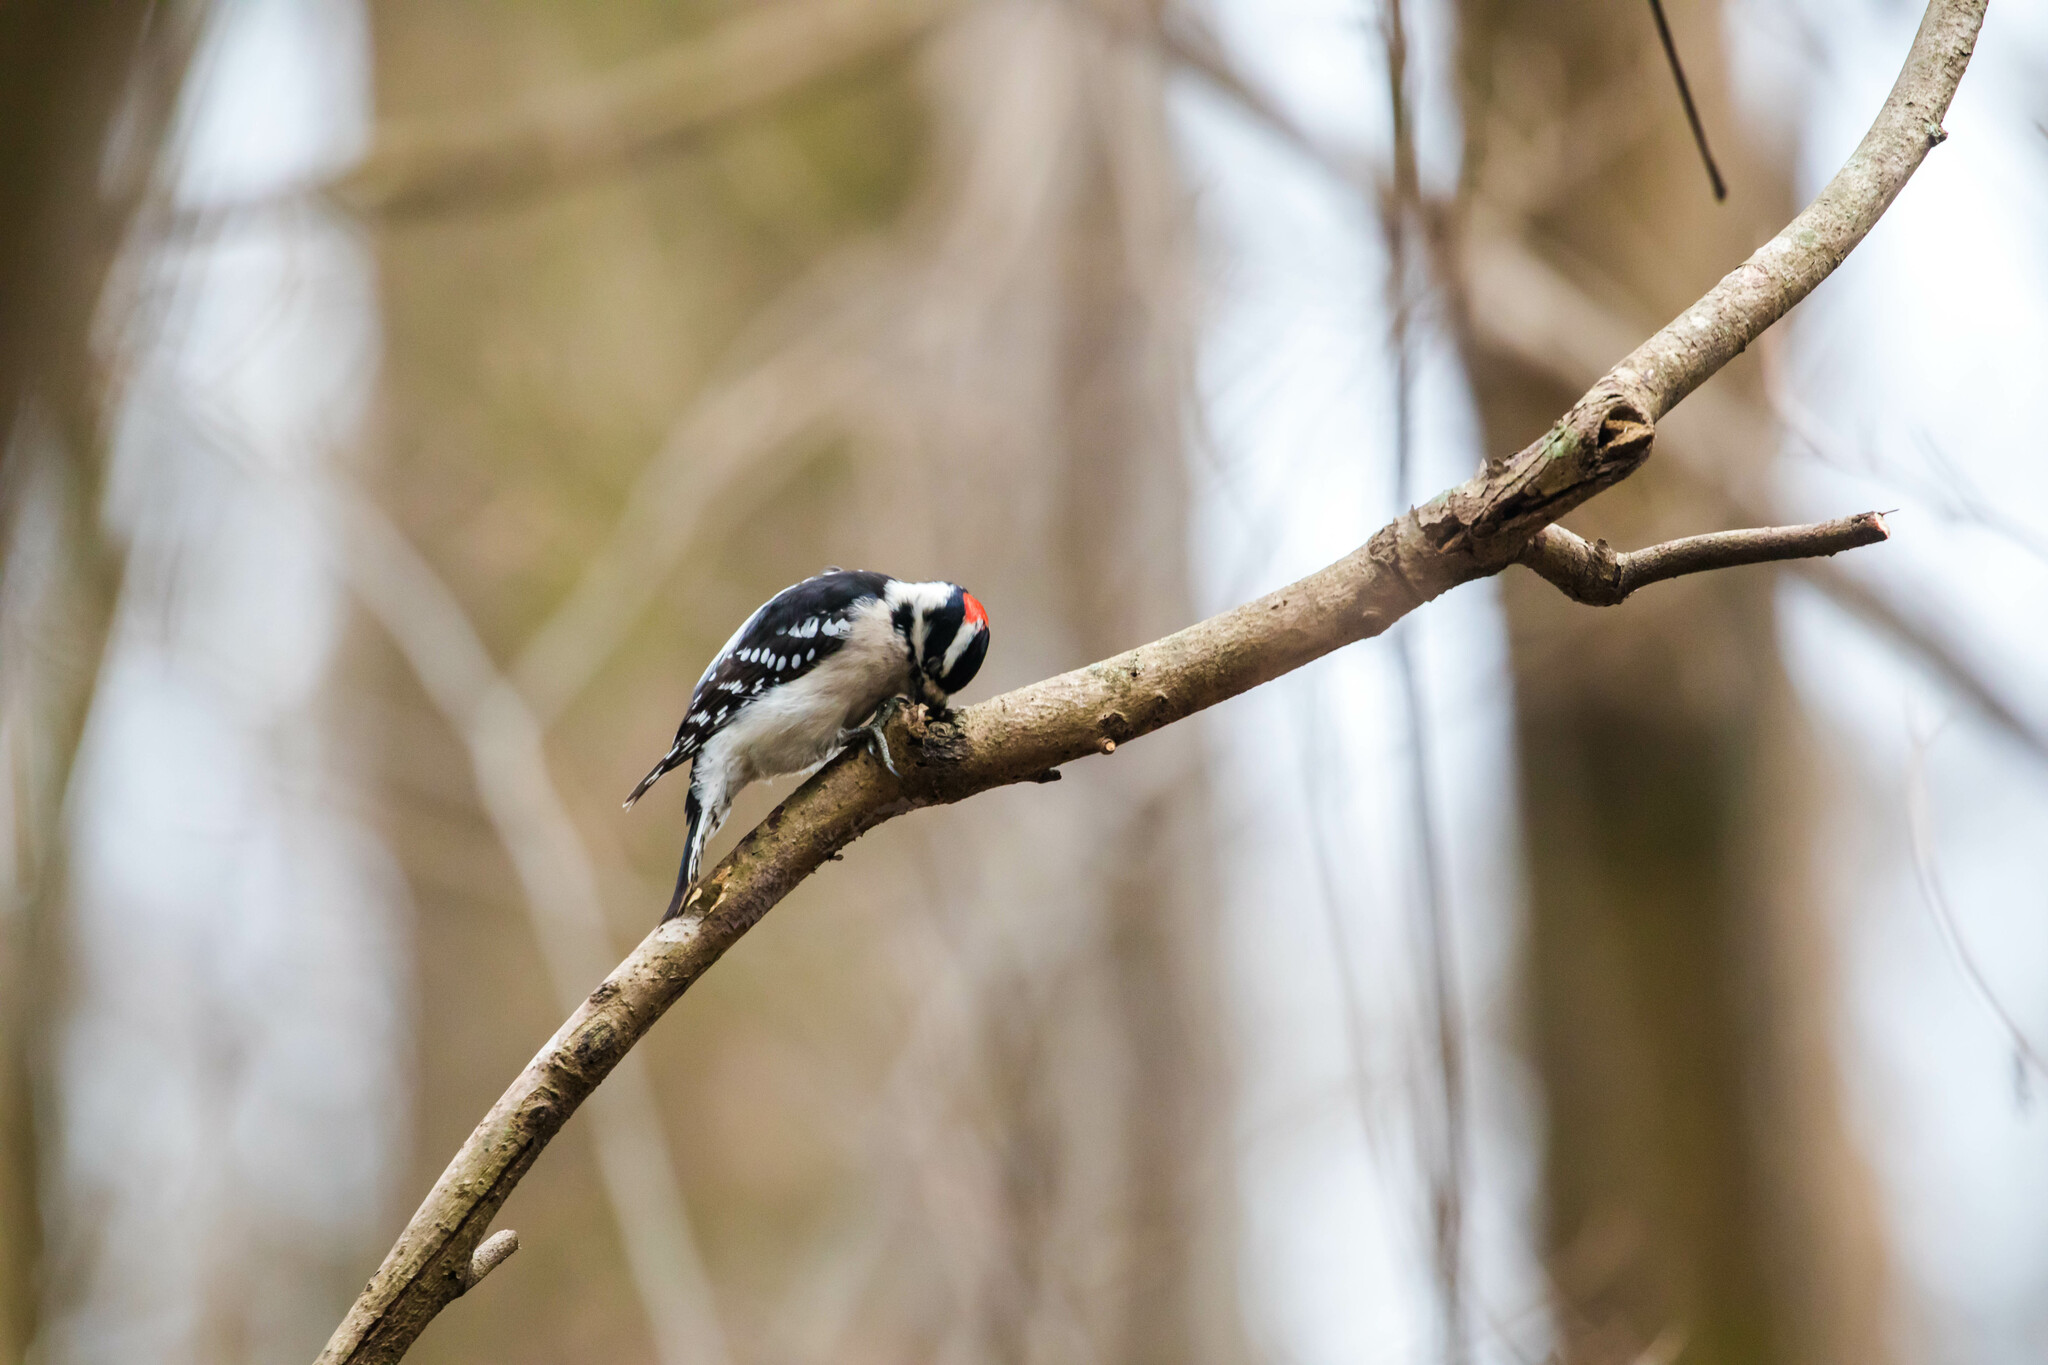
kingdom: Animalia
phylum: Chordata
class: Aves
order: Piciformes
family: Picidae
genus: Dryobates
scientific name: Dryobates pubescens
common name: Downy woodpecker
